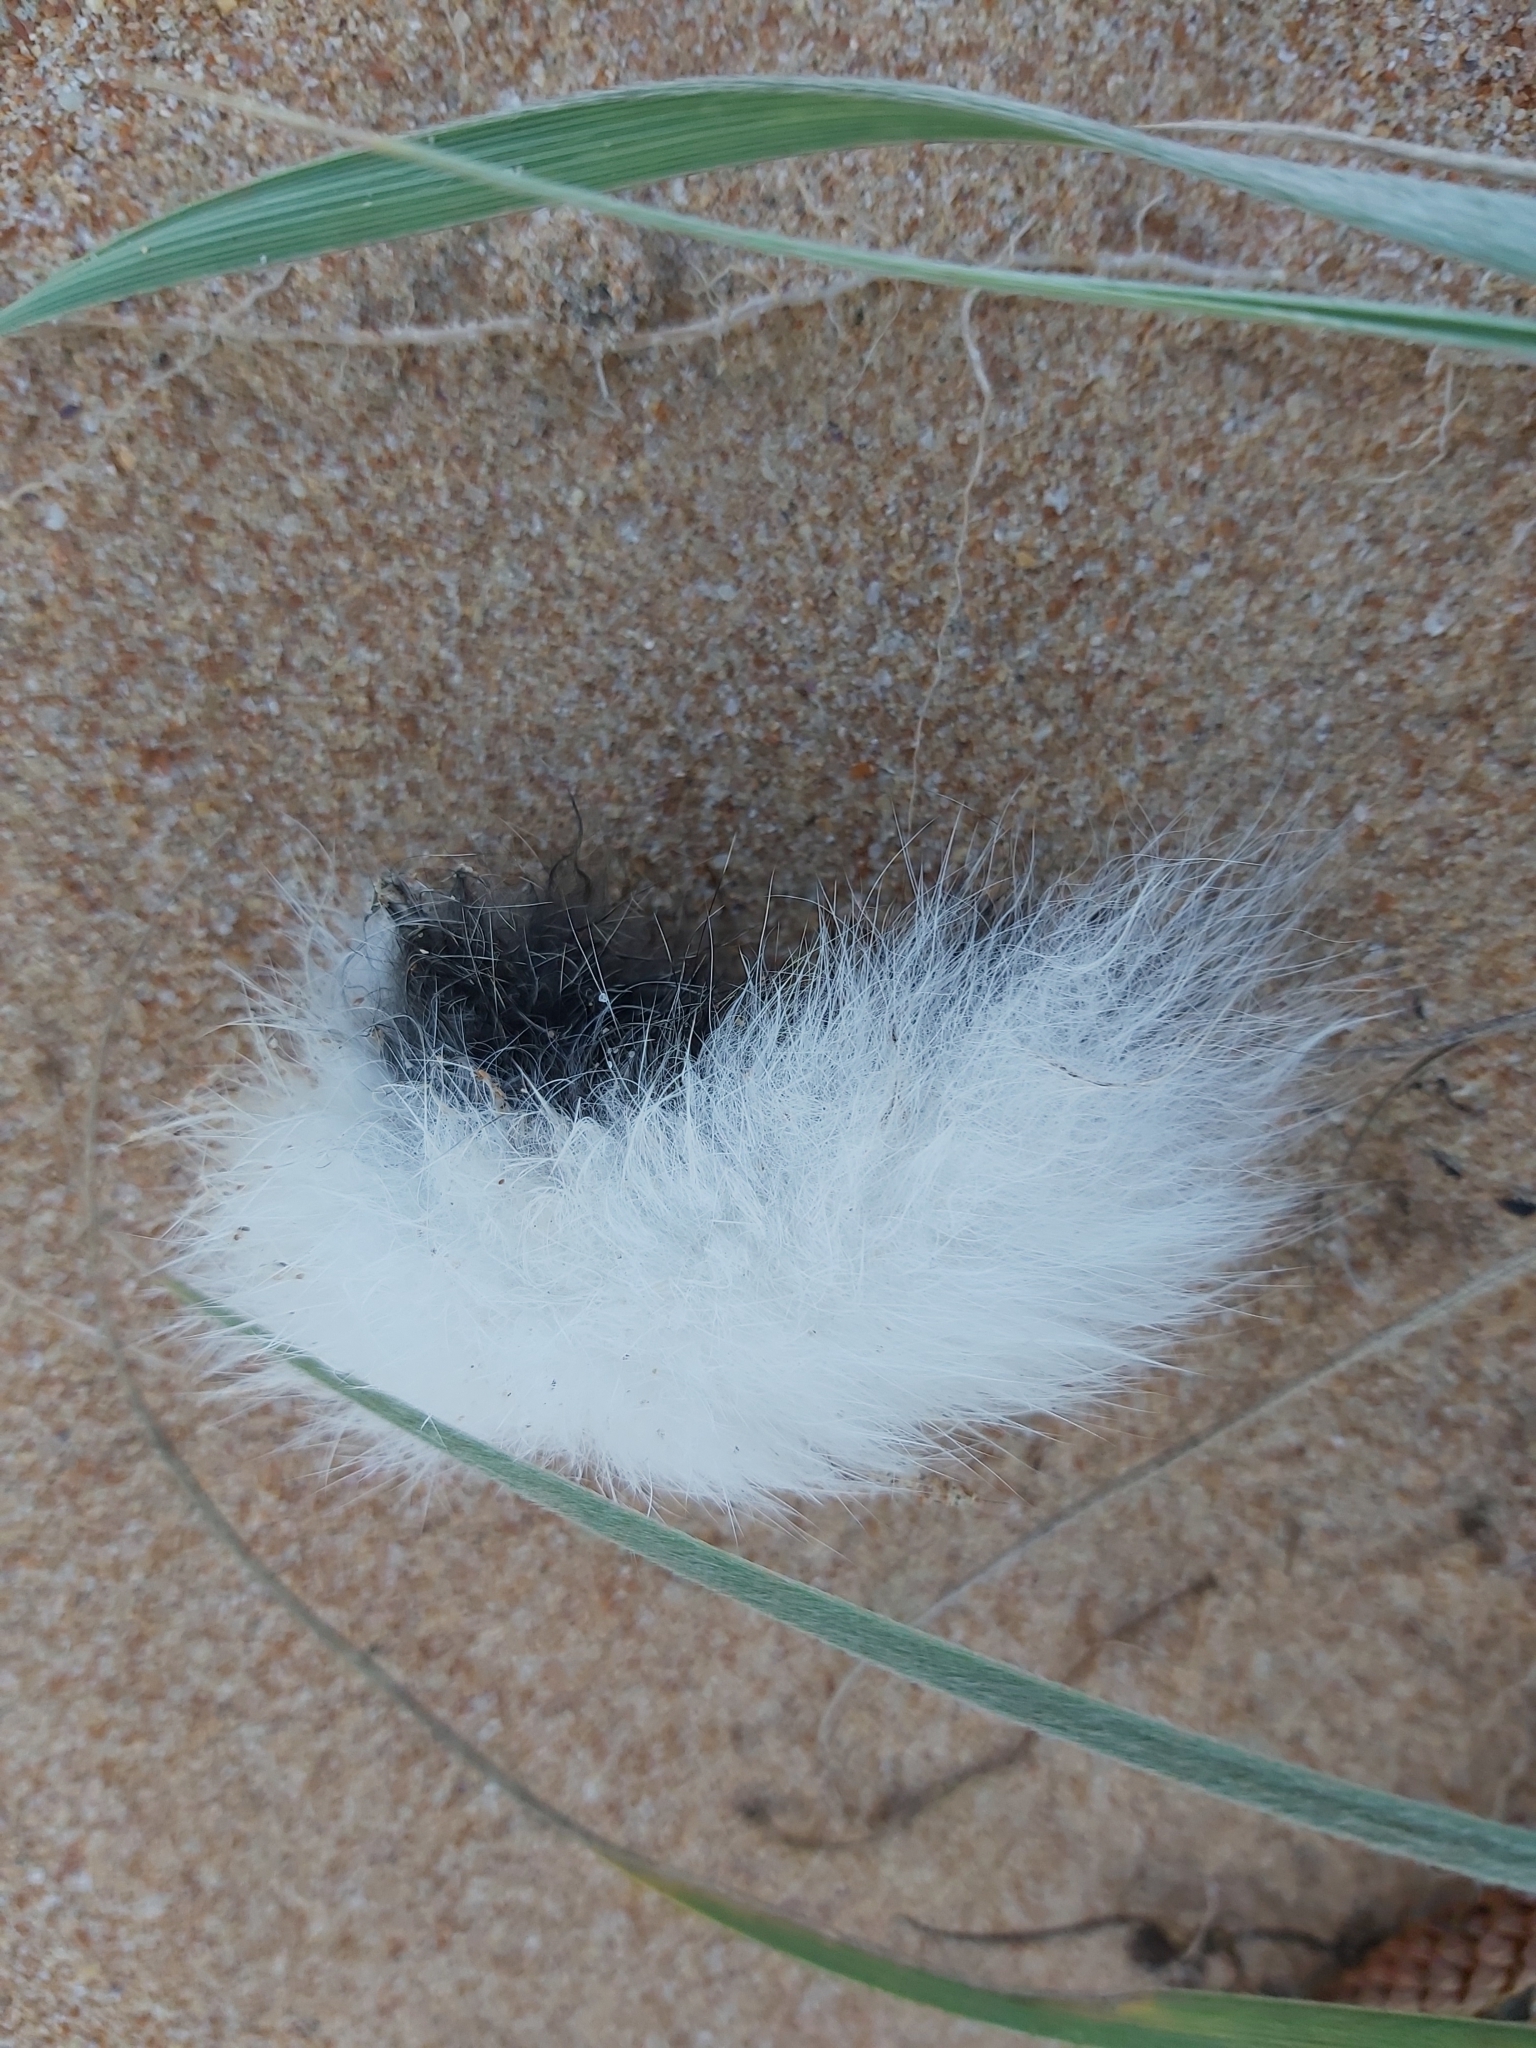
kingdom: Animalia
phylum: Chordata
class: Mammalia
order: Lagomorpha
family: Leporidae
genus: Oryctolagus
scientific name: Oryctolagus cuniculus
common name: European rabbit
